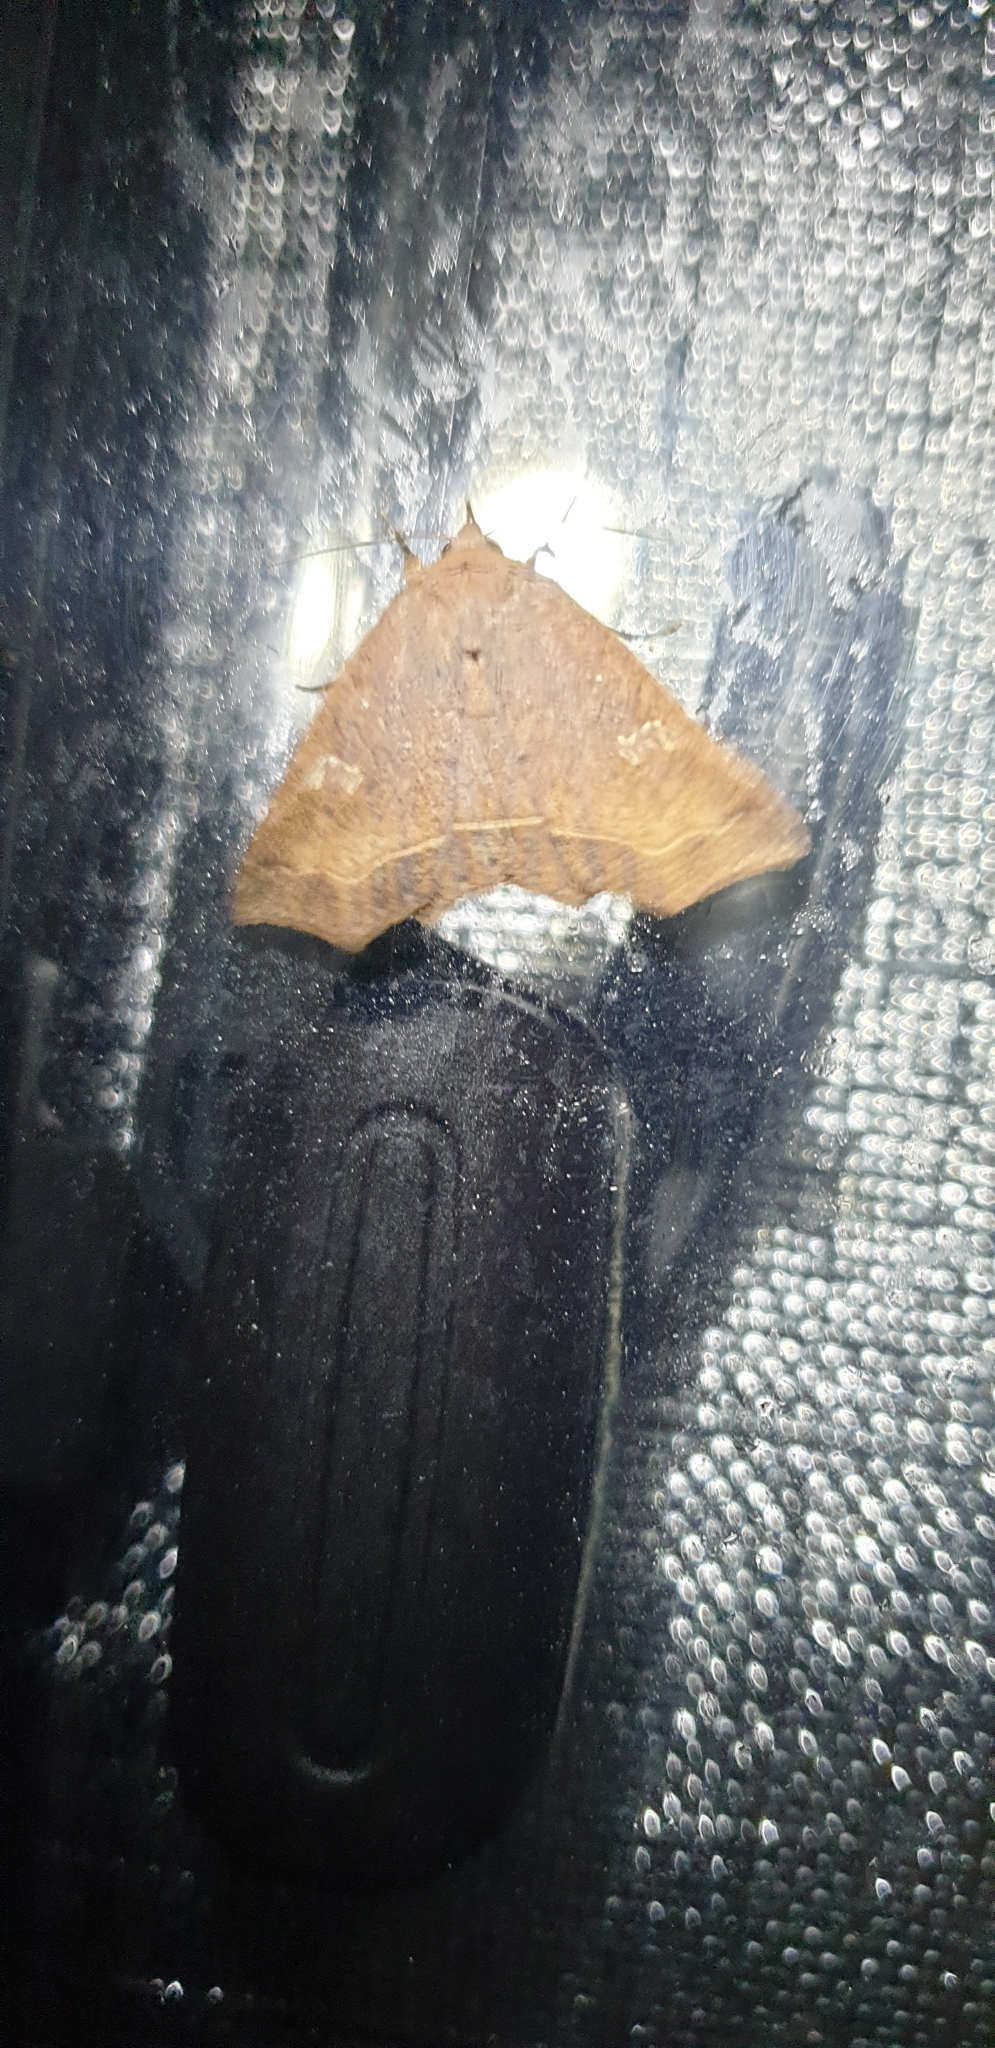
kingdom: Animalia
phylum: Arthropoda
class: Insecta
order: Lepidoptera
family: Erebidae
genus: Amphiongia
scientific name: Amphiongia chordophoides
